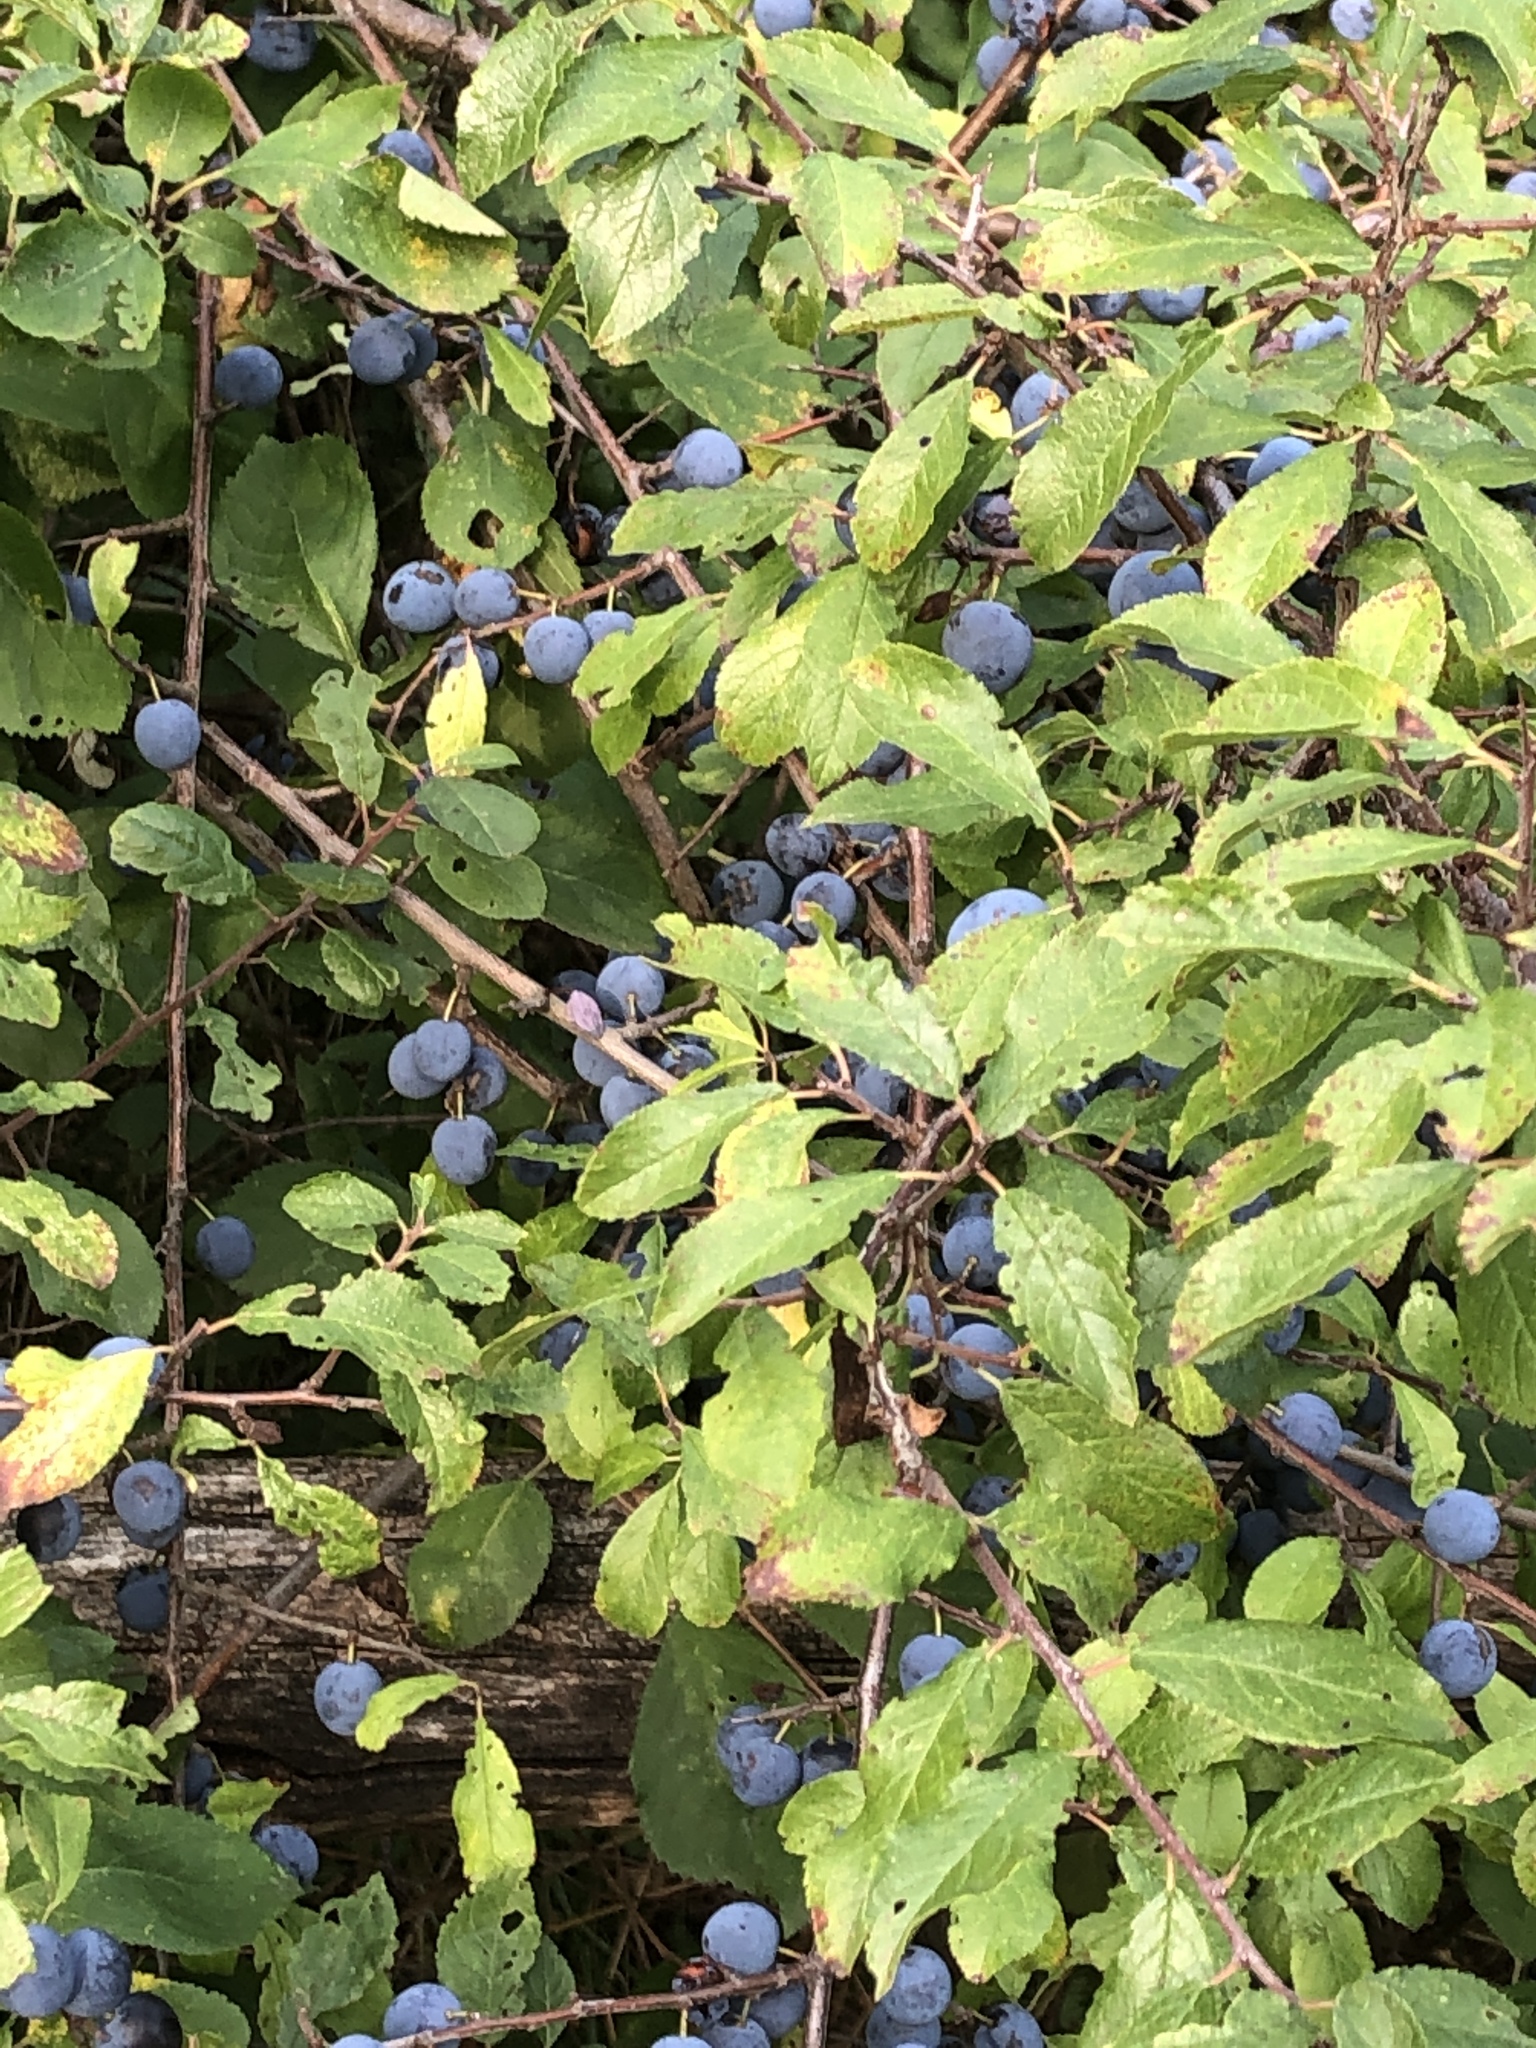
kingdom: Plantae
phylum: Tracheophyta
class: Magnoliopsida
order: Rosales
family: Rosaceae
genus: Prunus
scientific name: Prunus spinosa
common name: Blackthorn
